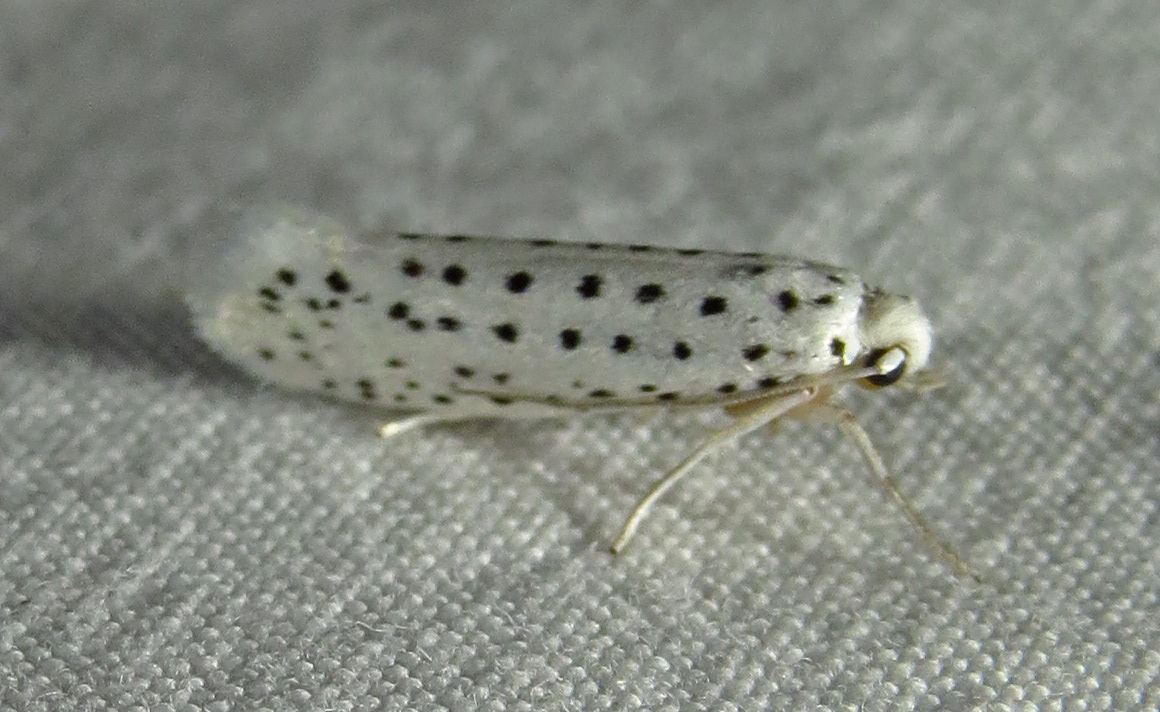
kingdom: Animalia
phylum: Arthropoda
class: Insecta
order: Lepidoptera
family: Yponomeutidae
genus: Yponomeuta
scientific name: Yponomeuta multipunctella
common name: American ermine moth
